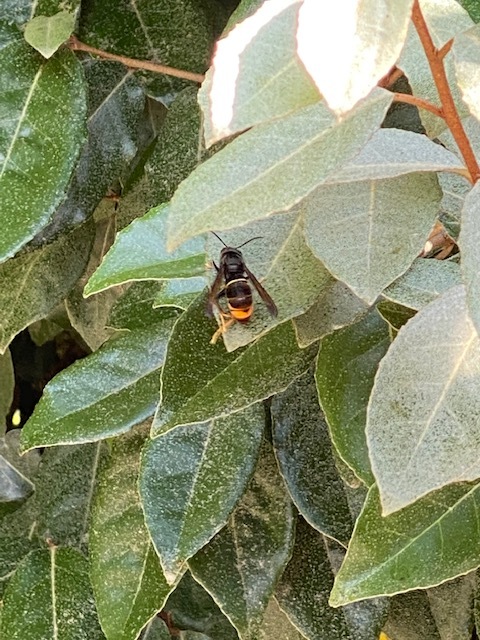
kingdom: Animalia
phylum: Arthropoda
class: Insecta
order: Hymenoptera
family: Vespidae
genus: Vespa
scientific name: Vespa velutina
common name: Asian hornet
